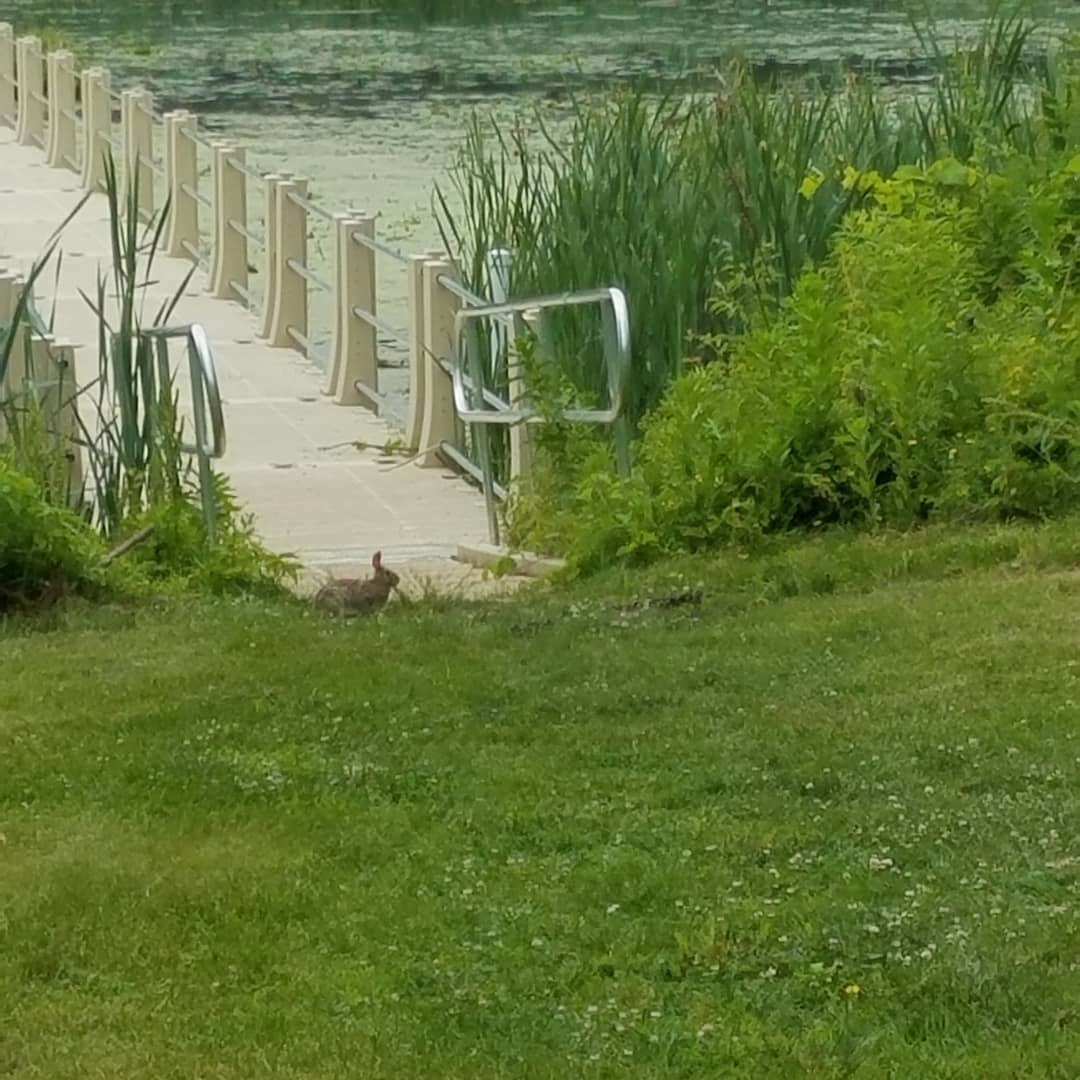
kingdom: Animalia
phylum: Chordata
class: Mammalia
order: Lagomorpha
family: Leporidae
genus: Sylvilagus
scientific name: Sylvilagus floridanus
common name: Eastern cottontail
